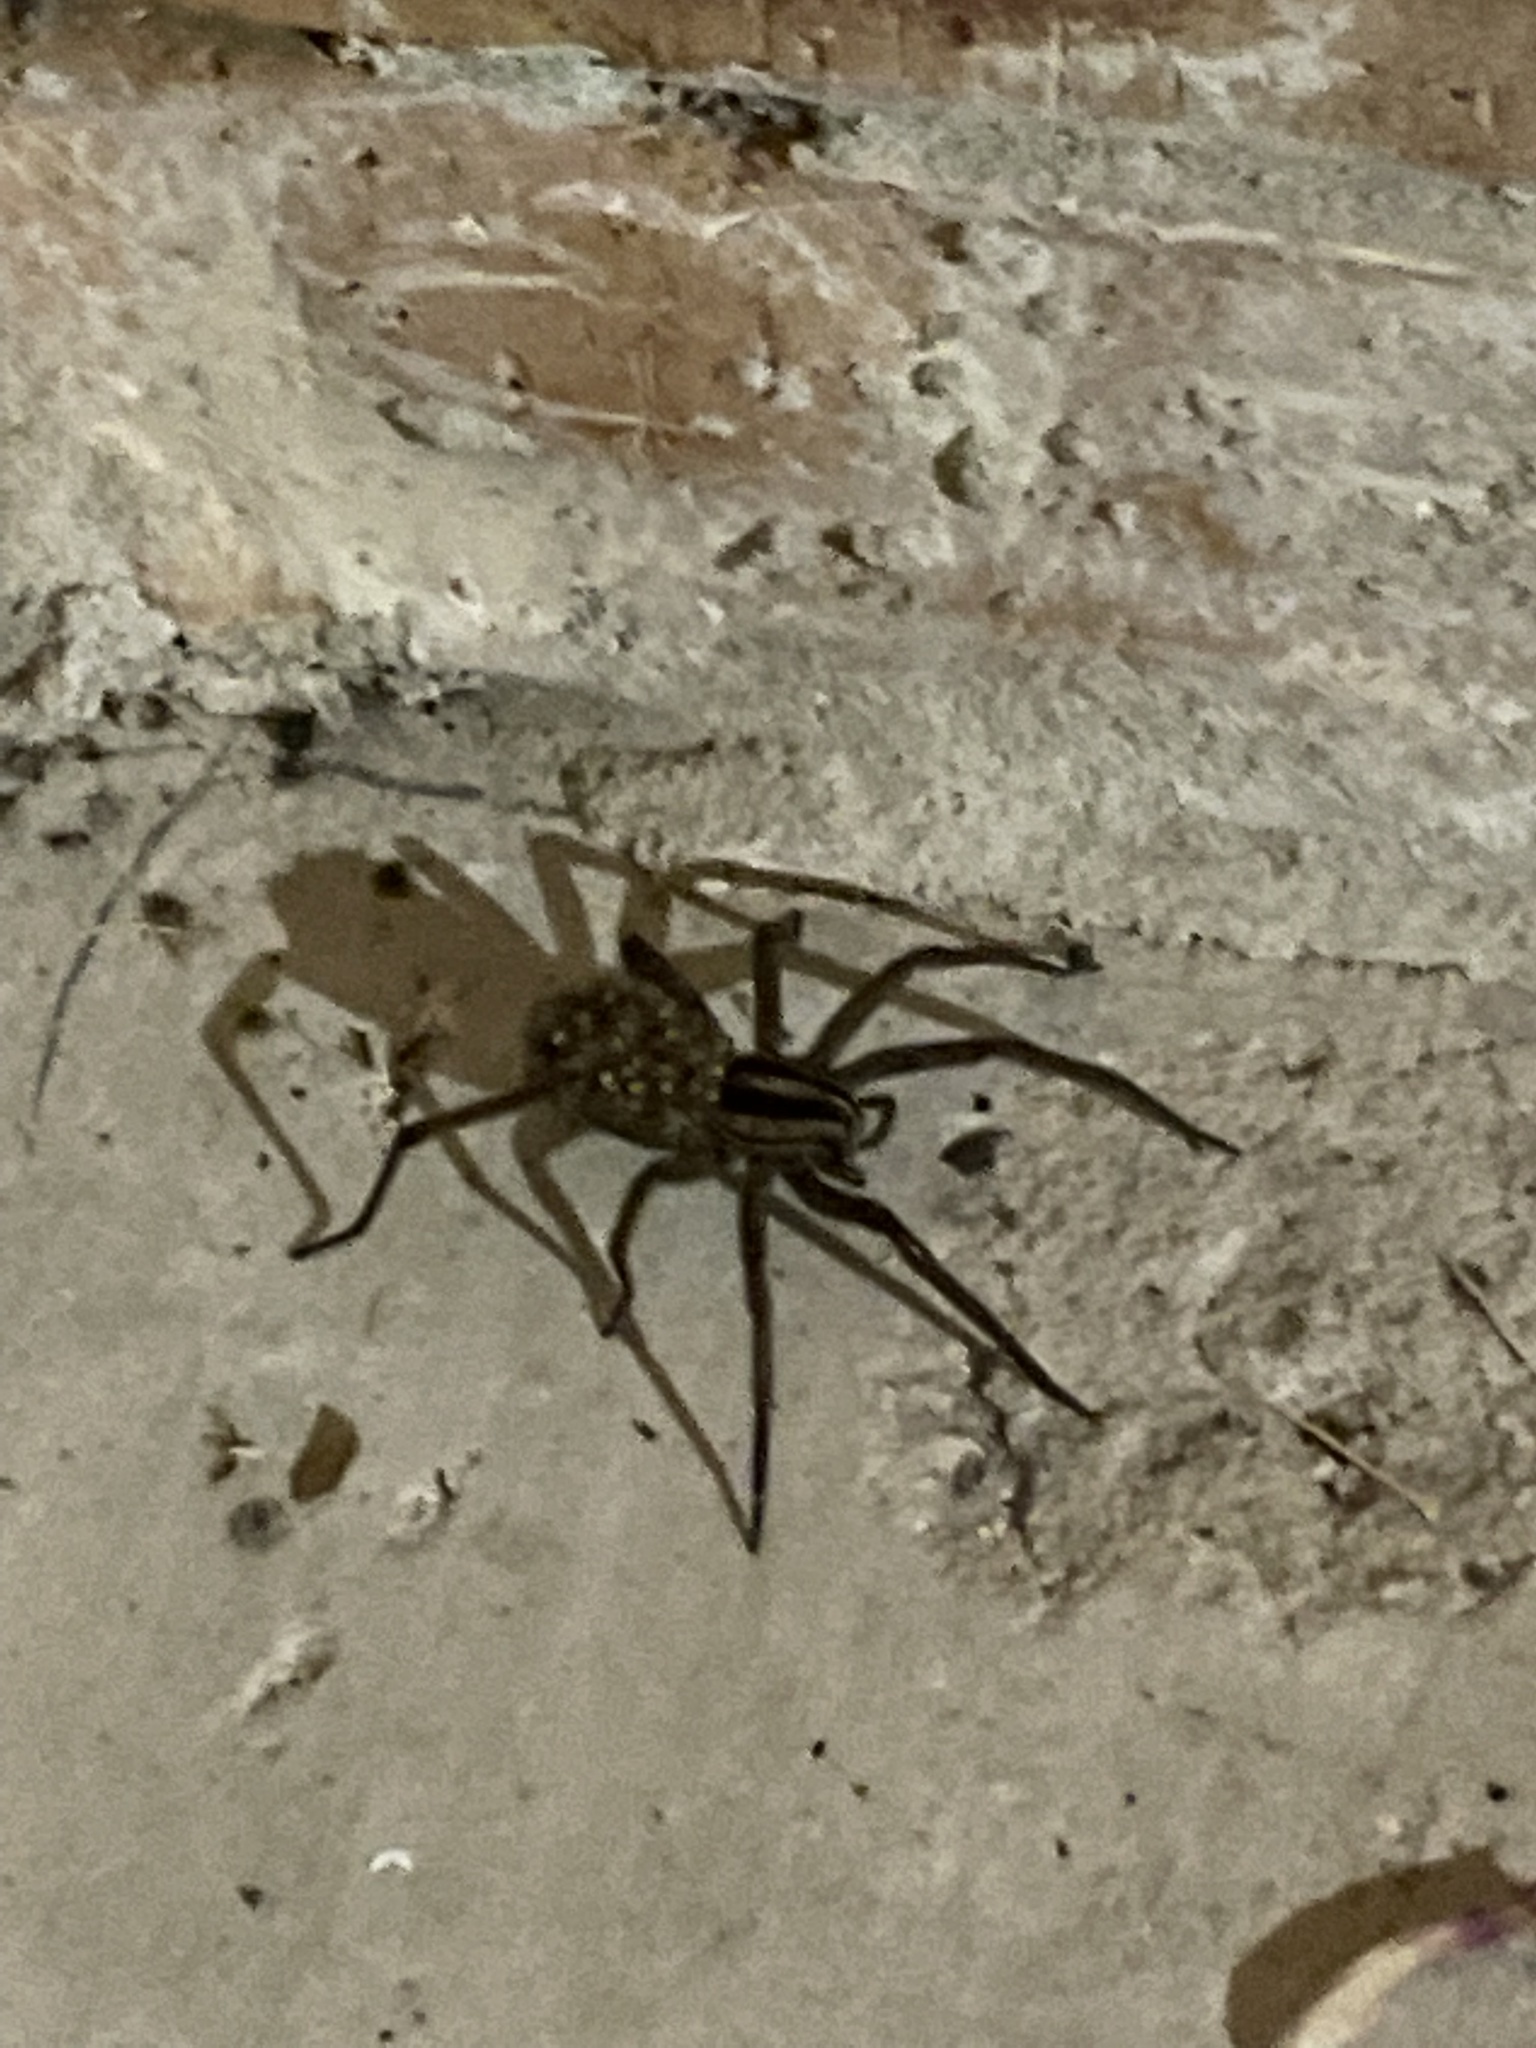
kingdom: Animalia
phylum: Arthropoda
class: Arachnida
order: Araneae
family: Lycosidae
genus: Rabidosa
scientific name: Rabidosa
